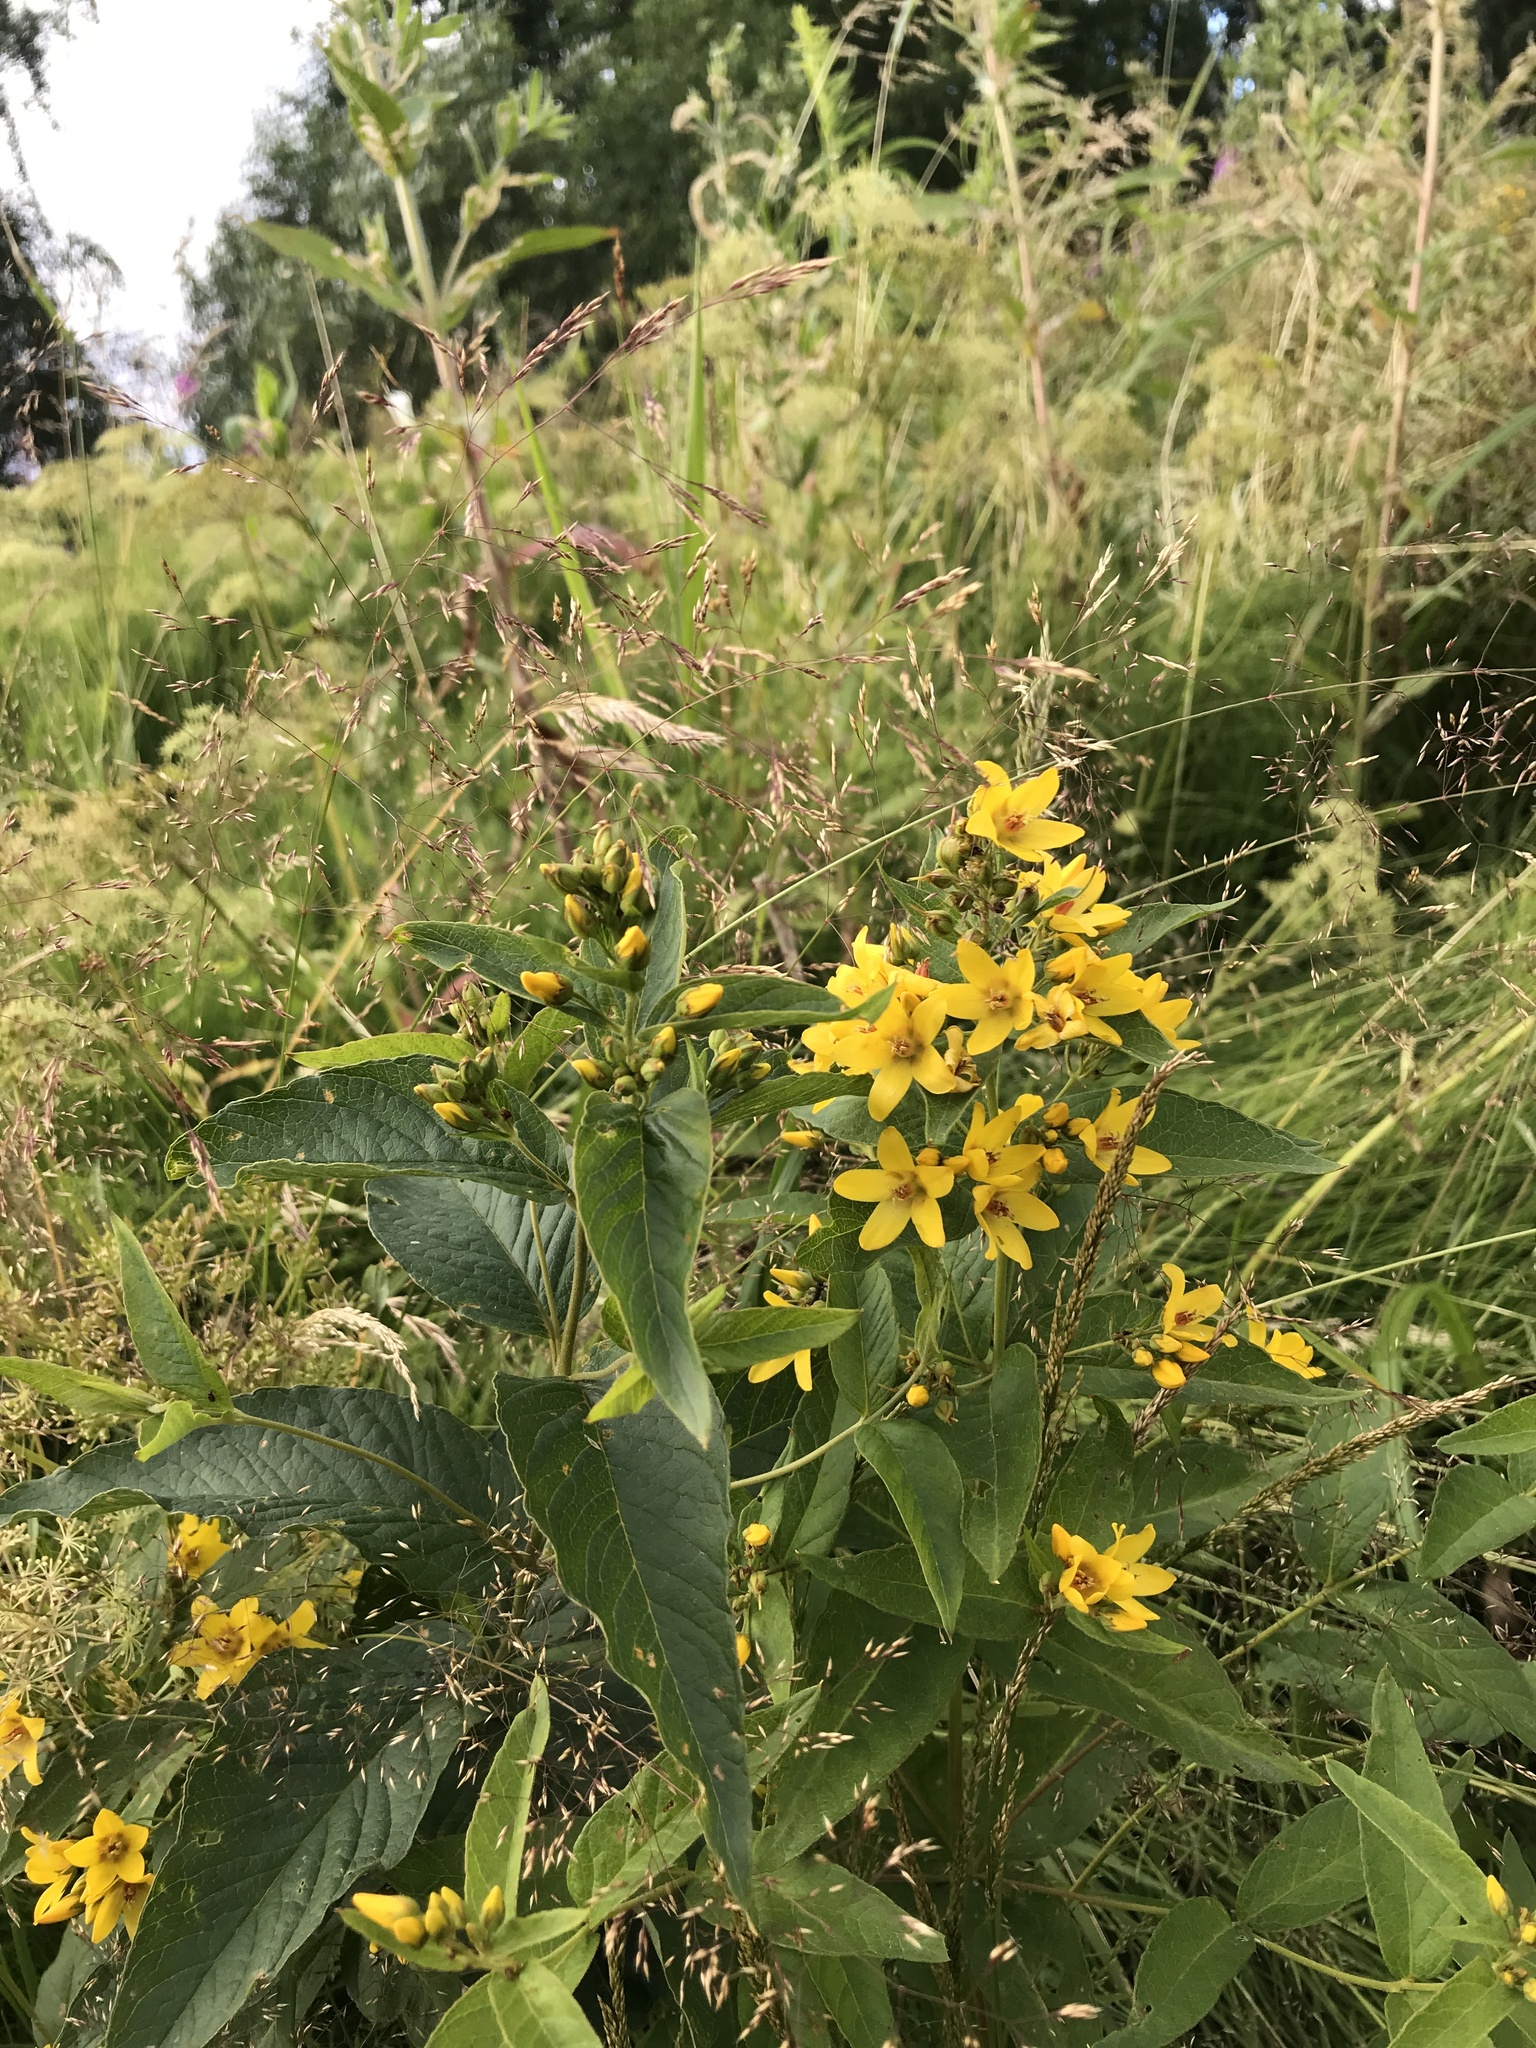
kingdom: Plantae
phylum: Tracheophyta
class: Magnoliopsida
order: Ericales
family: Primulaceae
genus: Lysimachia
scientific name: Lysimachia vulgaris
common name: Yellow loosestrife
